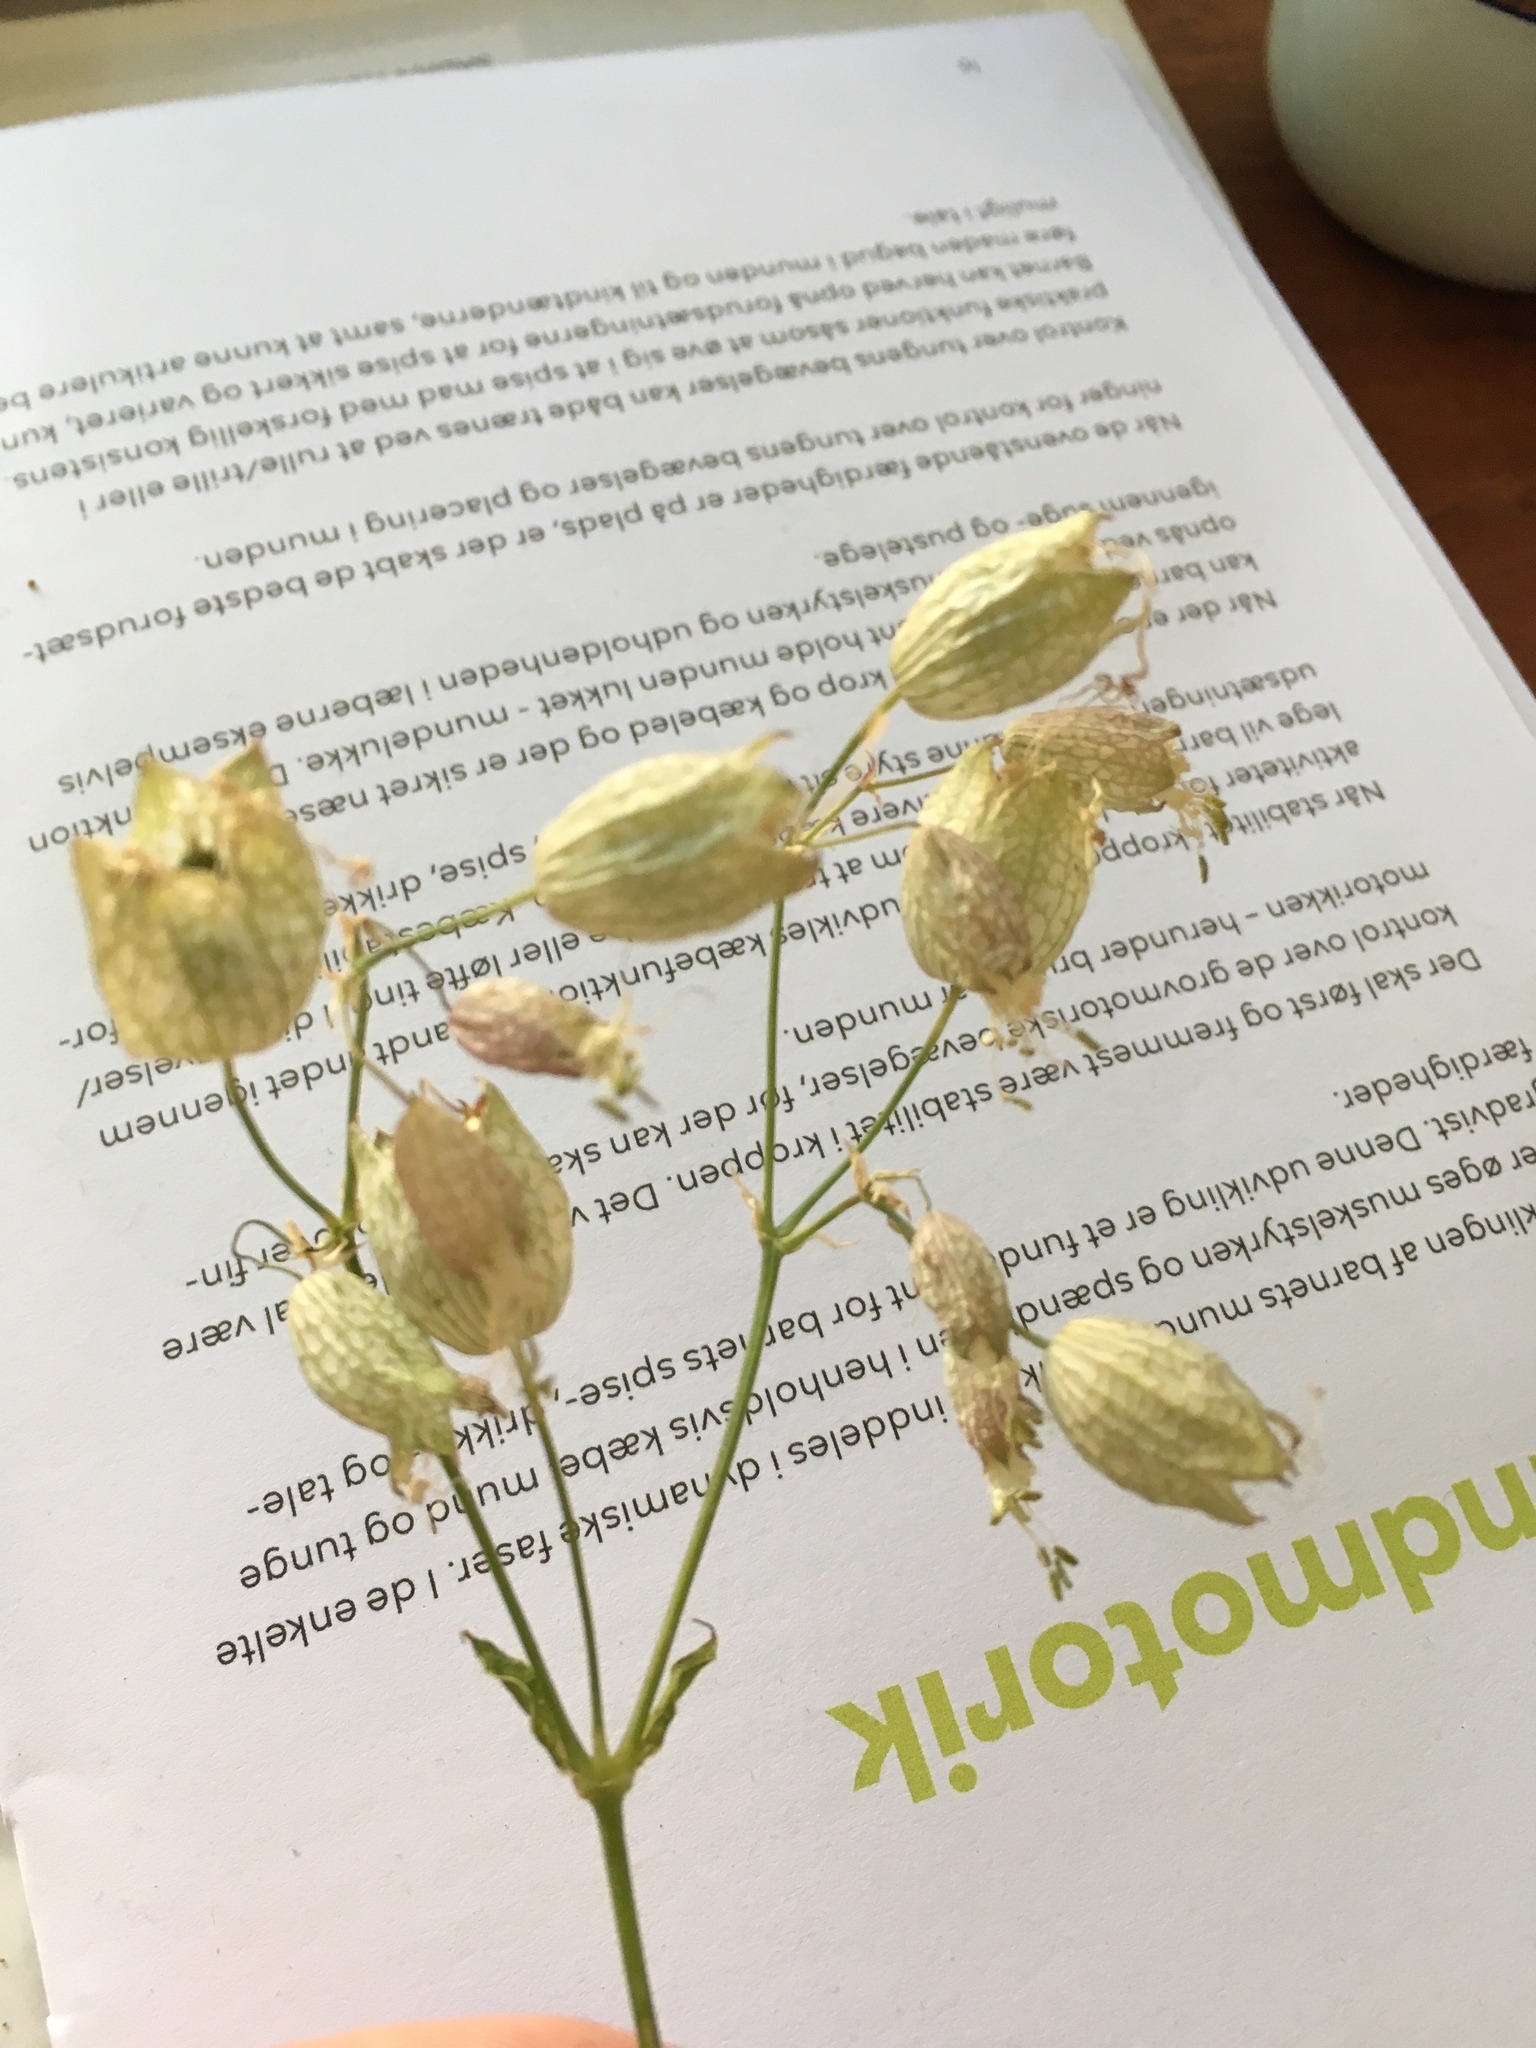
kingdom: Plantae
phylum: Tracheophyta
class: Magnoliopsida
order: Caryophyllales
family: Caryophyllaceae
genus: Silene
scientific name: Silene vulgaris
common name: Bladder campion
